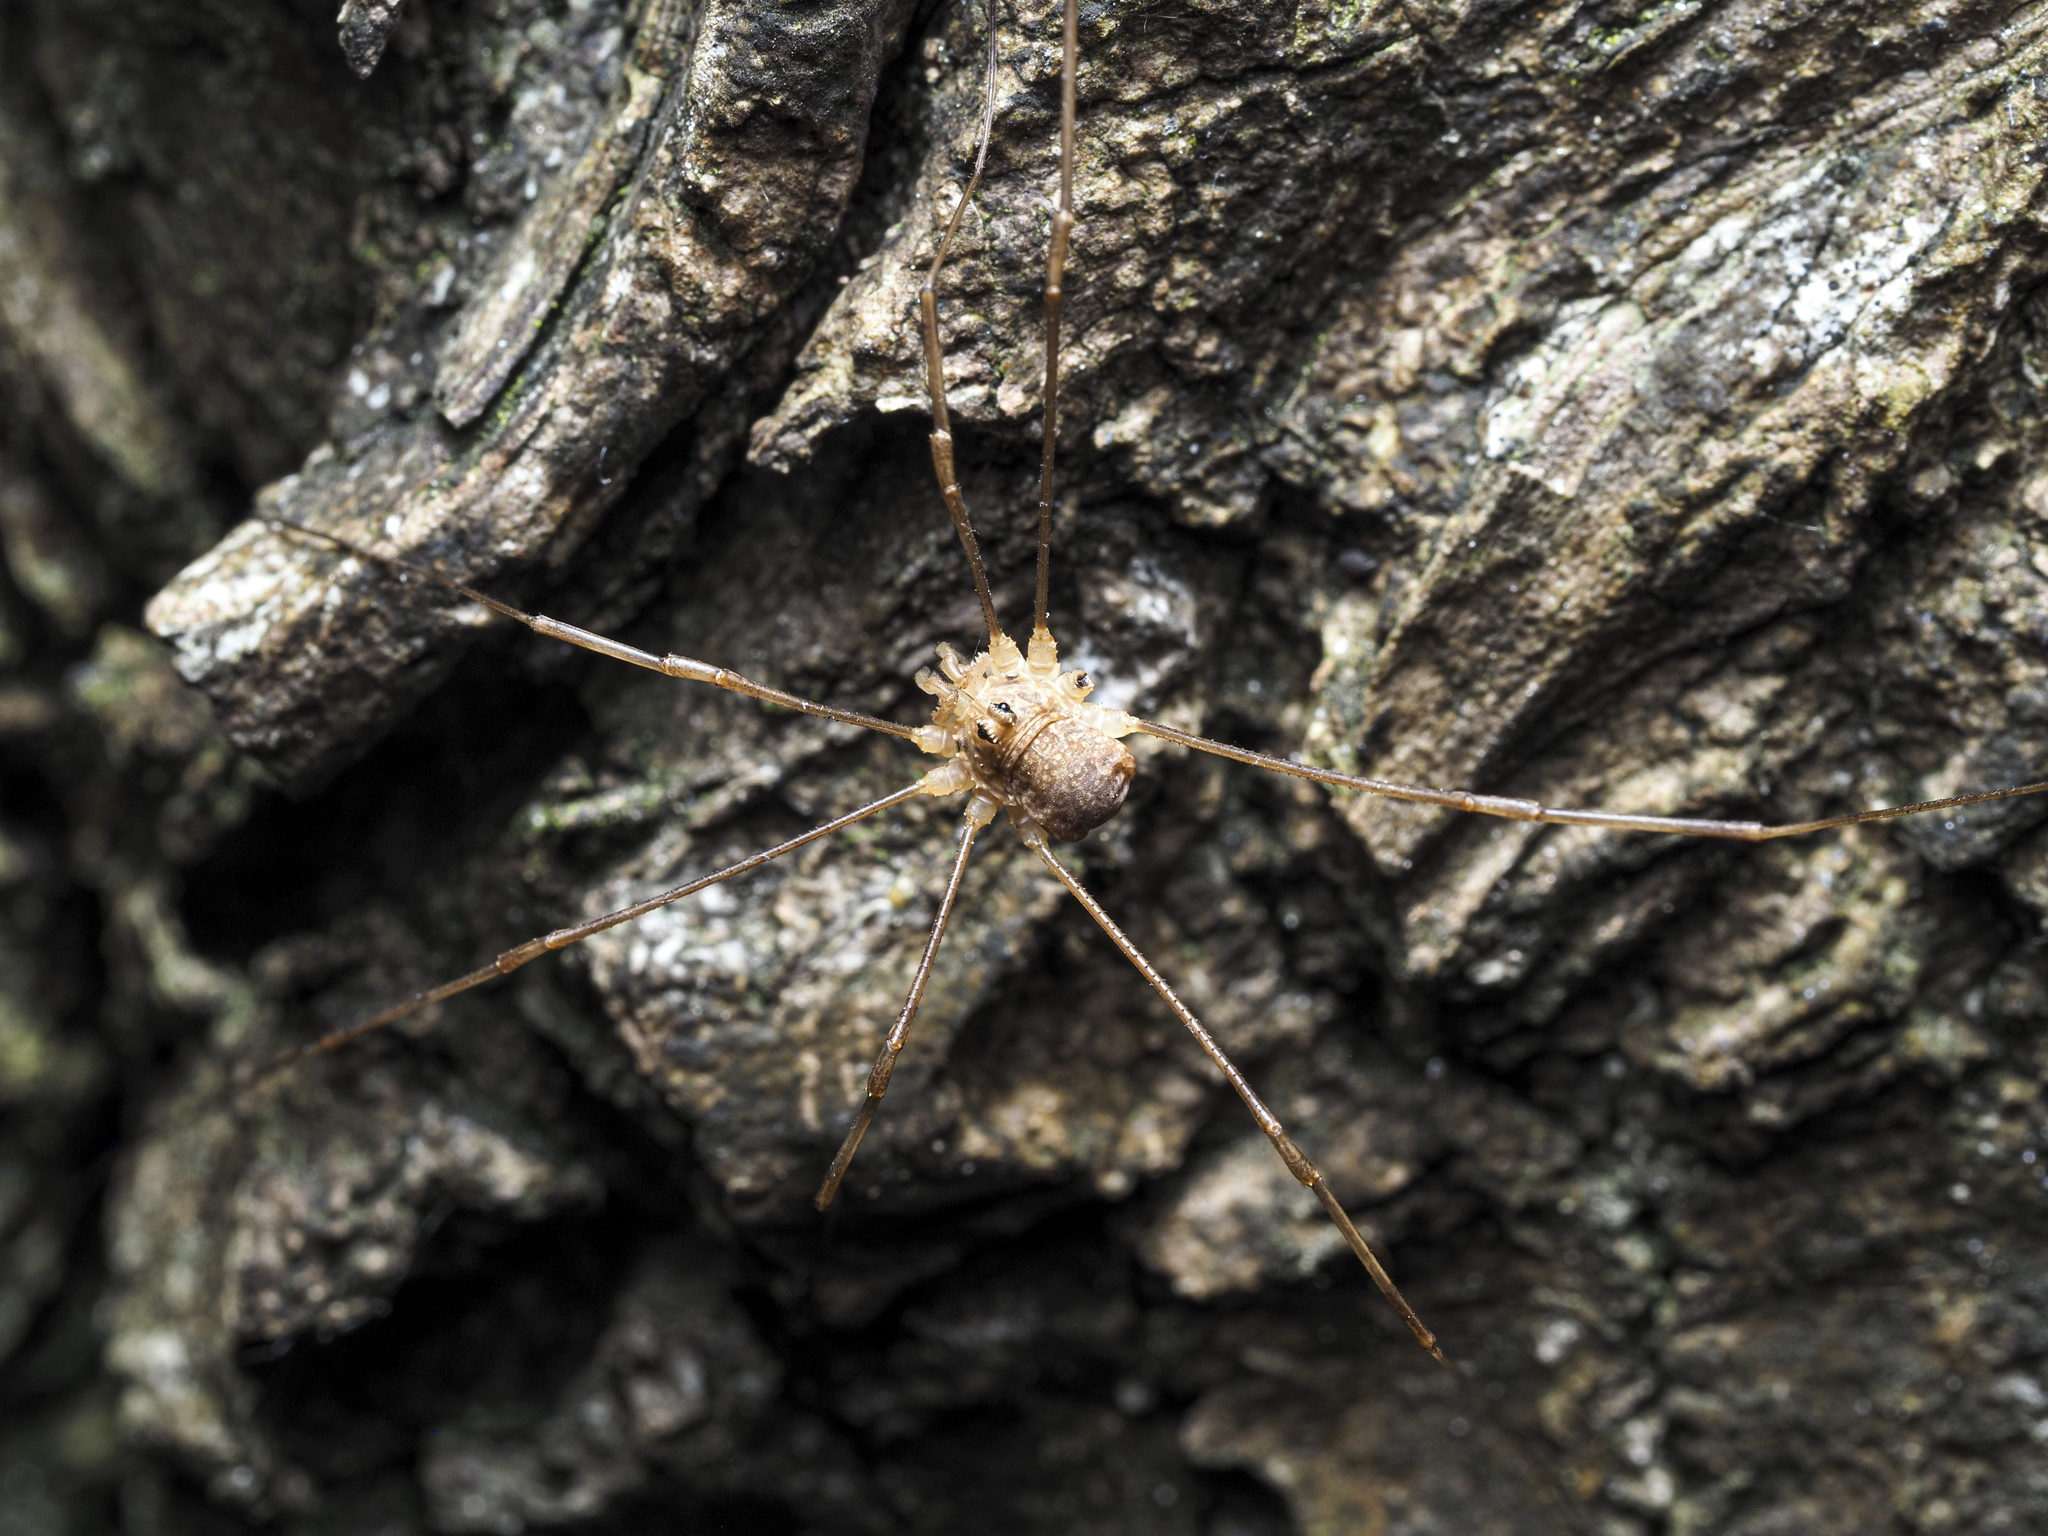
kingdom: Animalia
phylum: Arthropoda
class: Arachnida
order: Opiliones
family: Phalangiidae
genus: Rilaena
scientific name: Rilaena triangularis
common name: Spring harvestman
